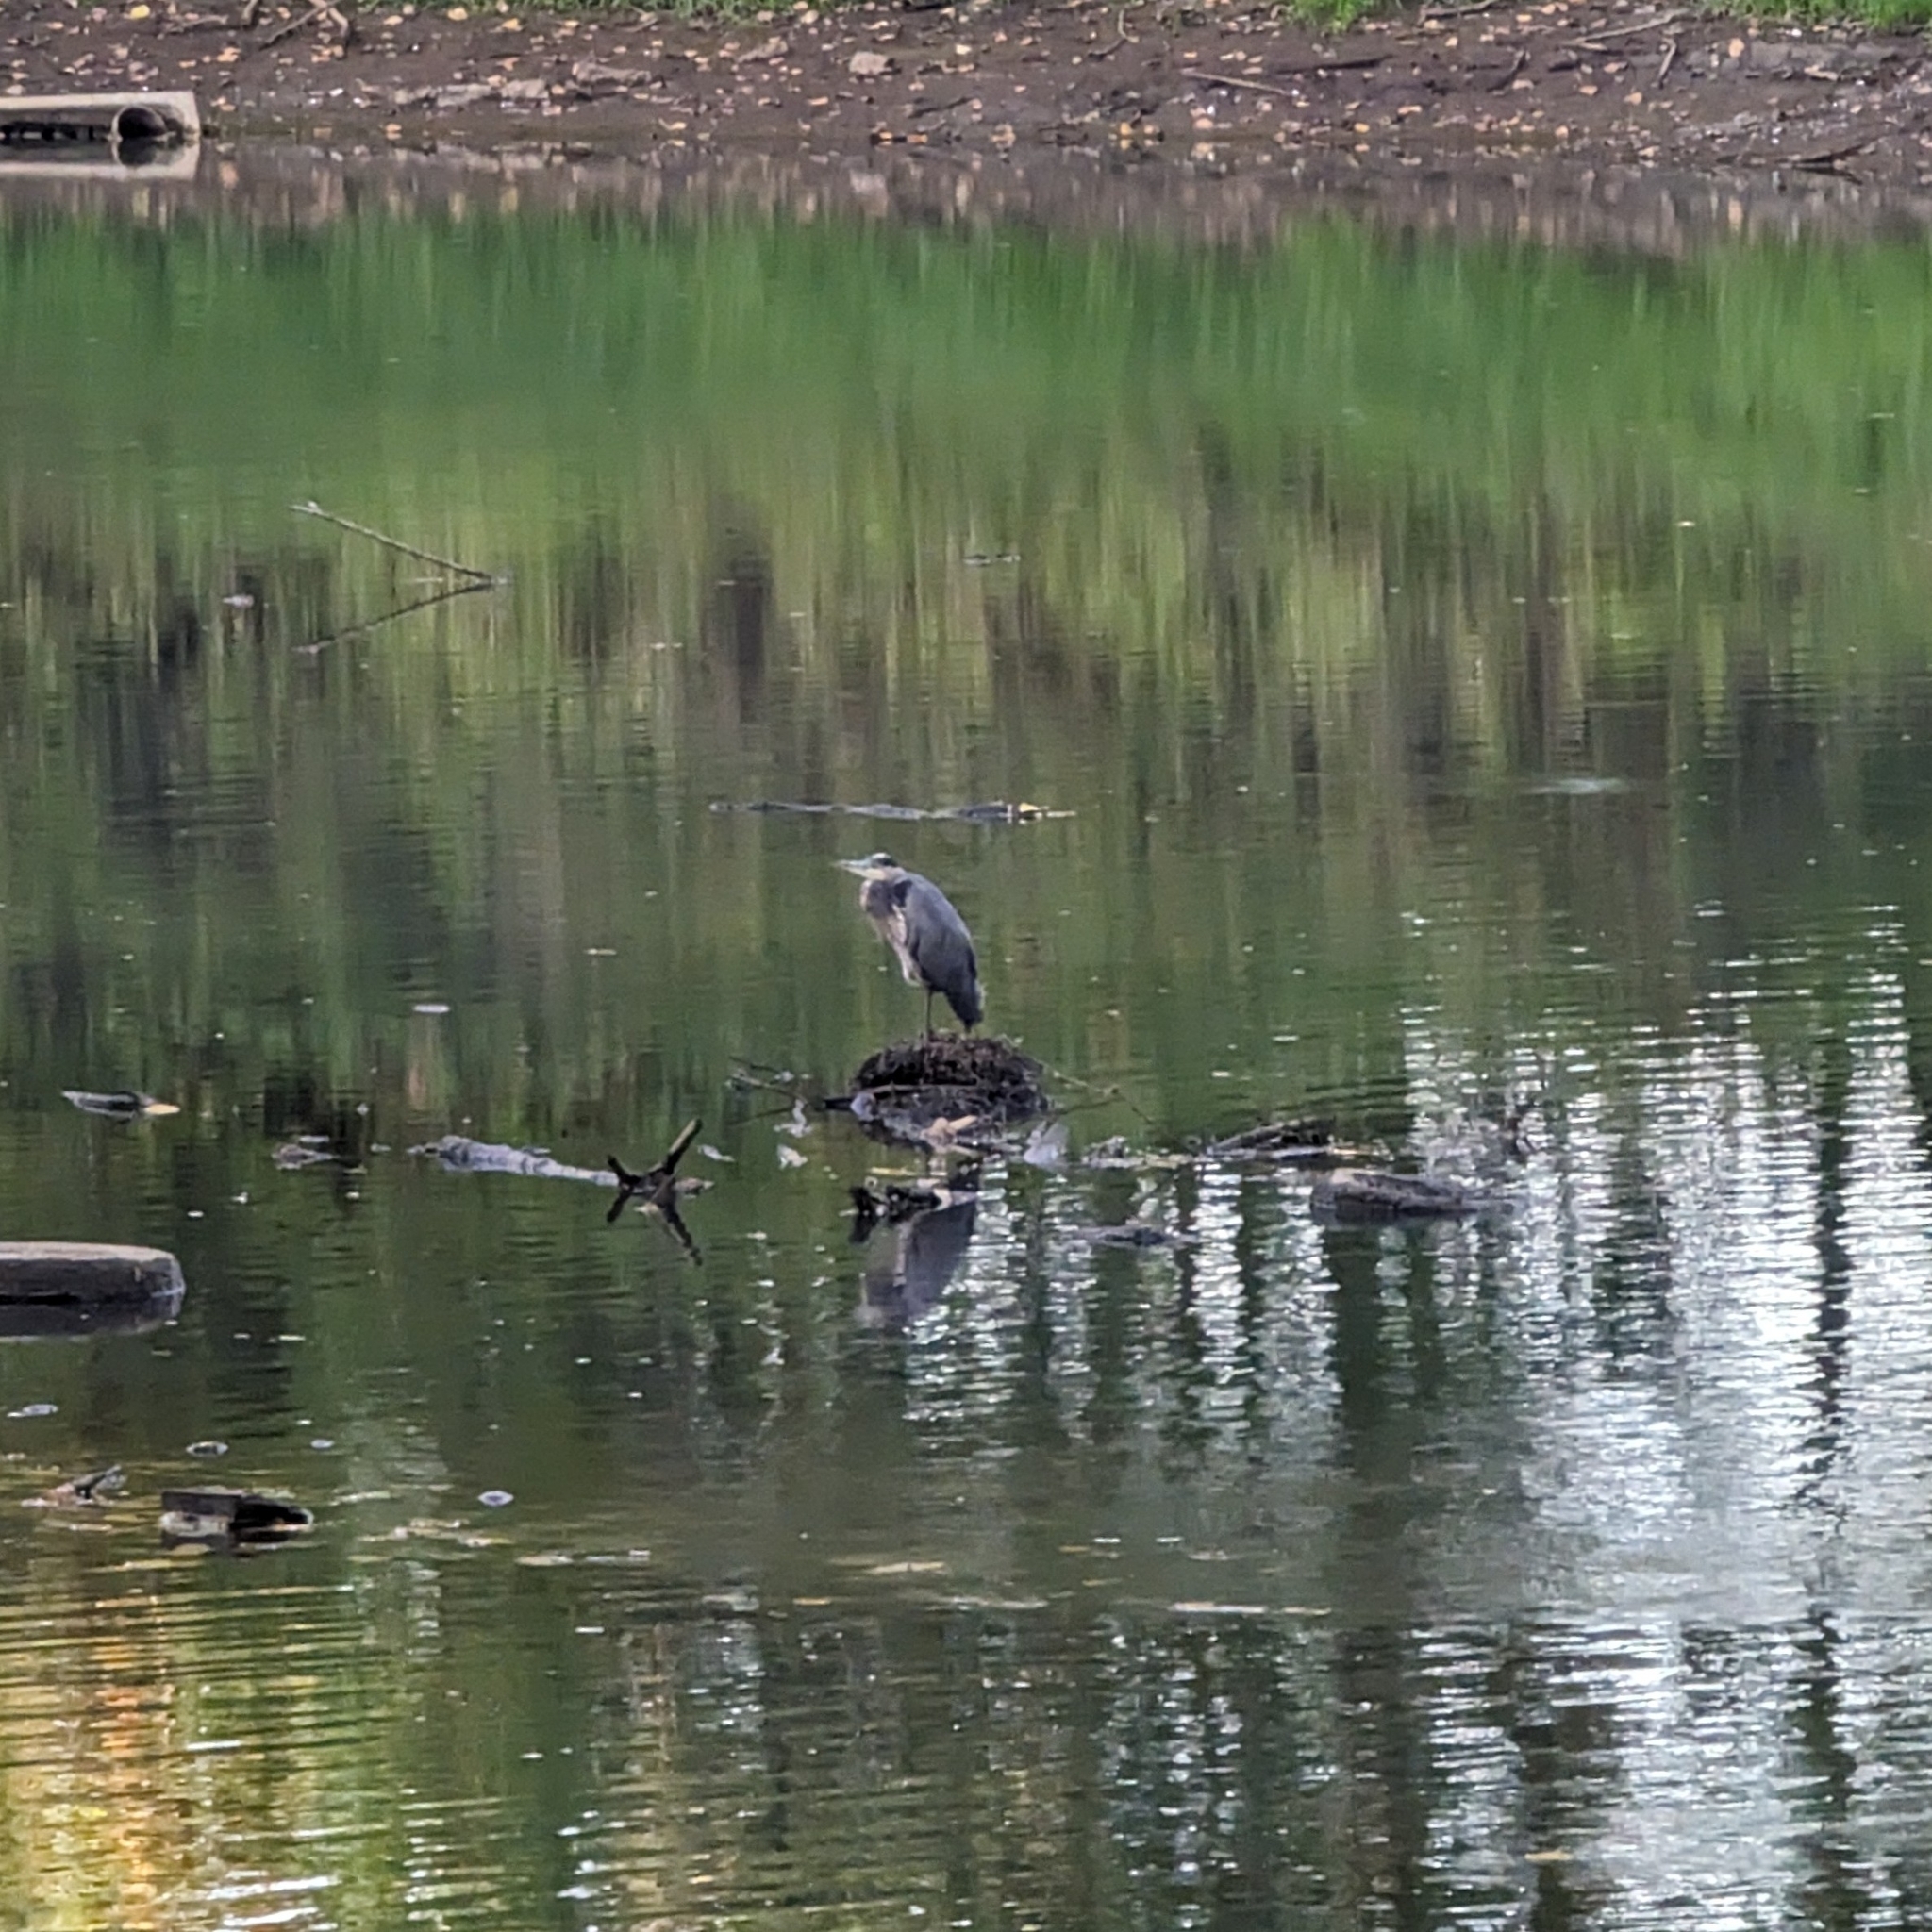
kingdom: Animalia
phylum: Chordata
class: Aves
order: Pelecaniformes
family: Ardeidae
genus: Ardea
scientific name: Ardea herodias
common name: Great blue heron
